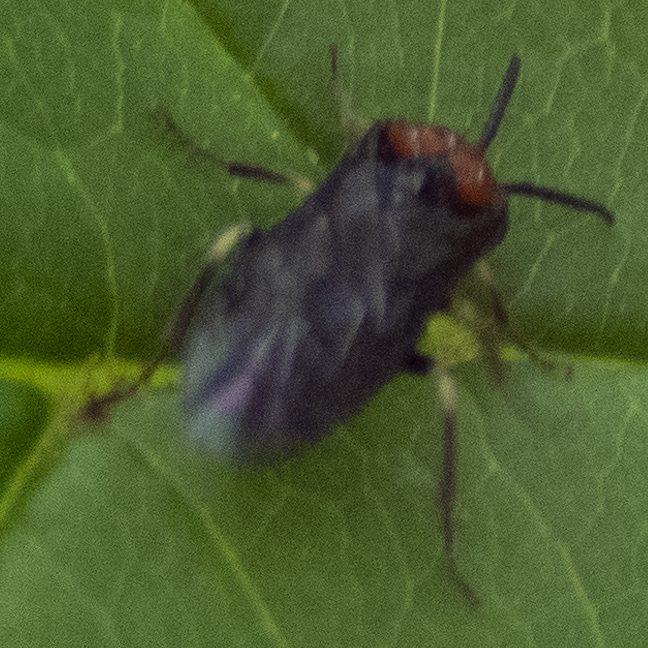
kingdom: Animalia
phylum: Arthropoda
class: Insecta
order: Hymenoptera
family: Tenthredinidae
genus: Eutomostethus
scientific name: Eutomostethus ephippium
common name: Tenthredid wasp
